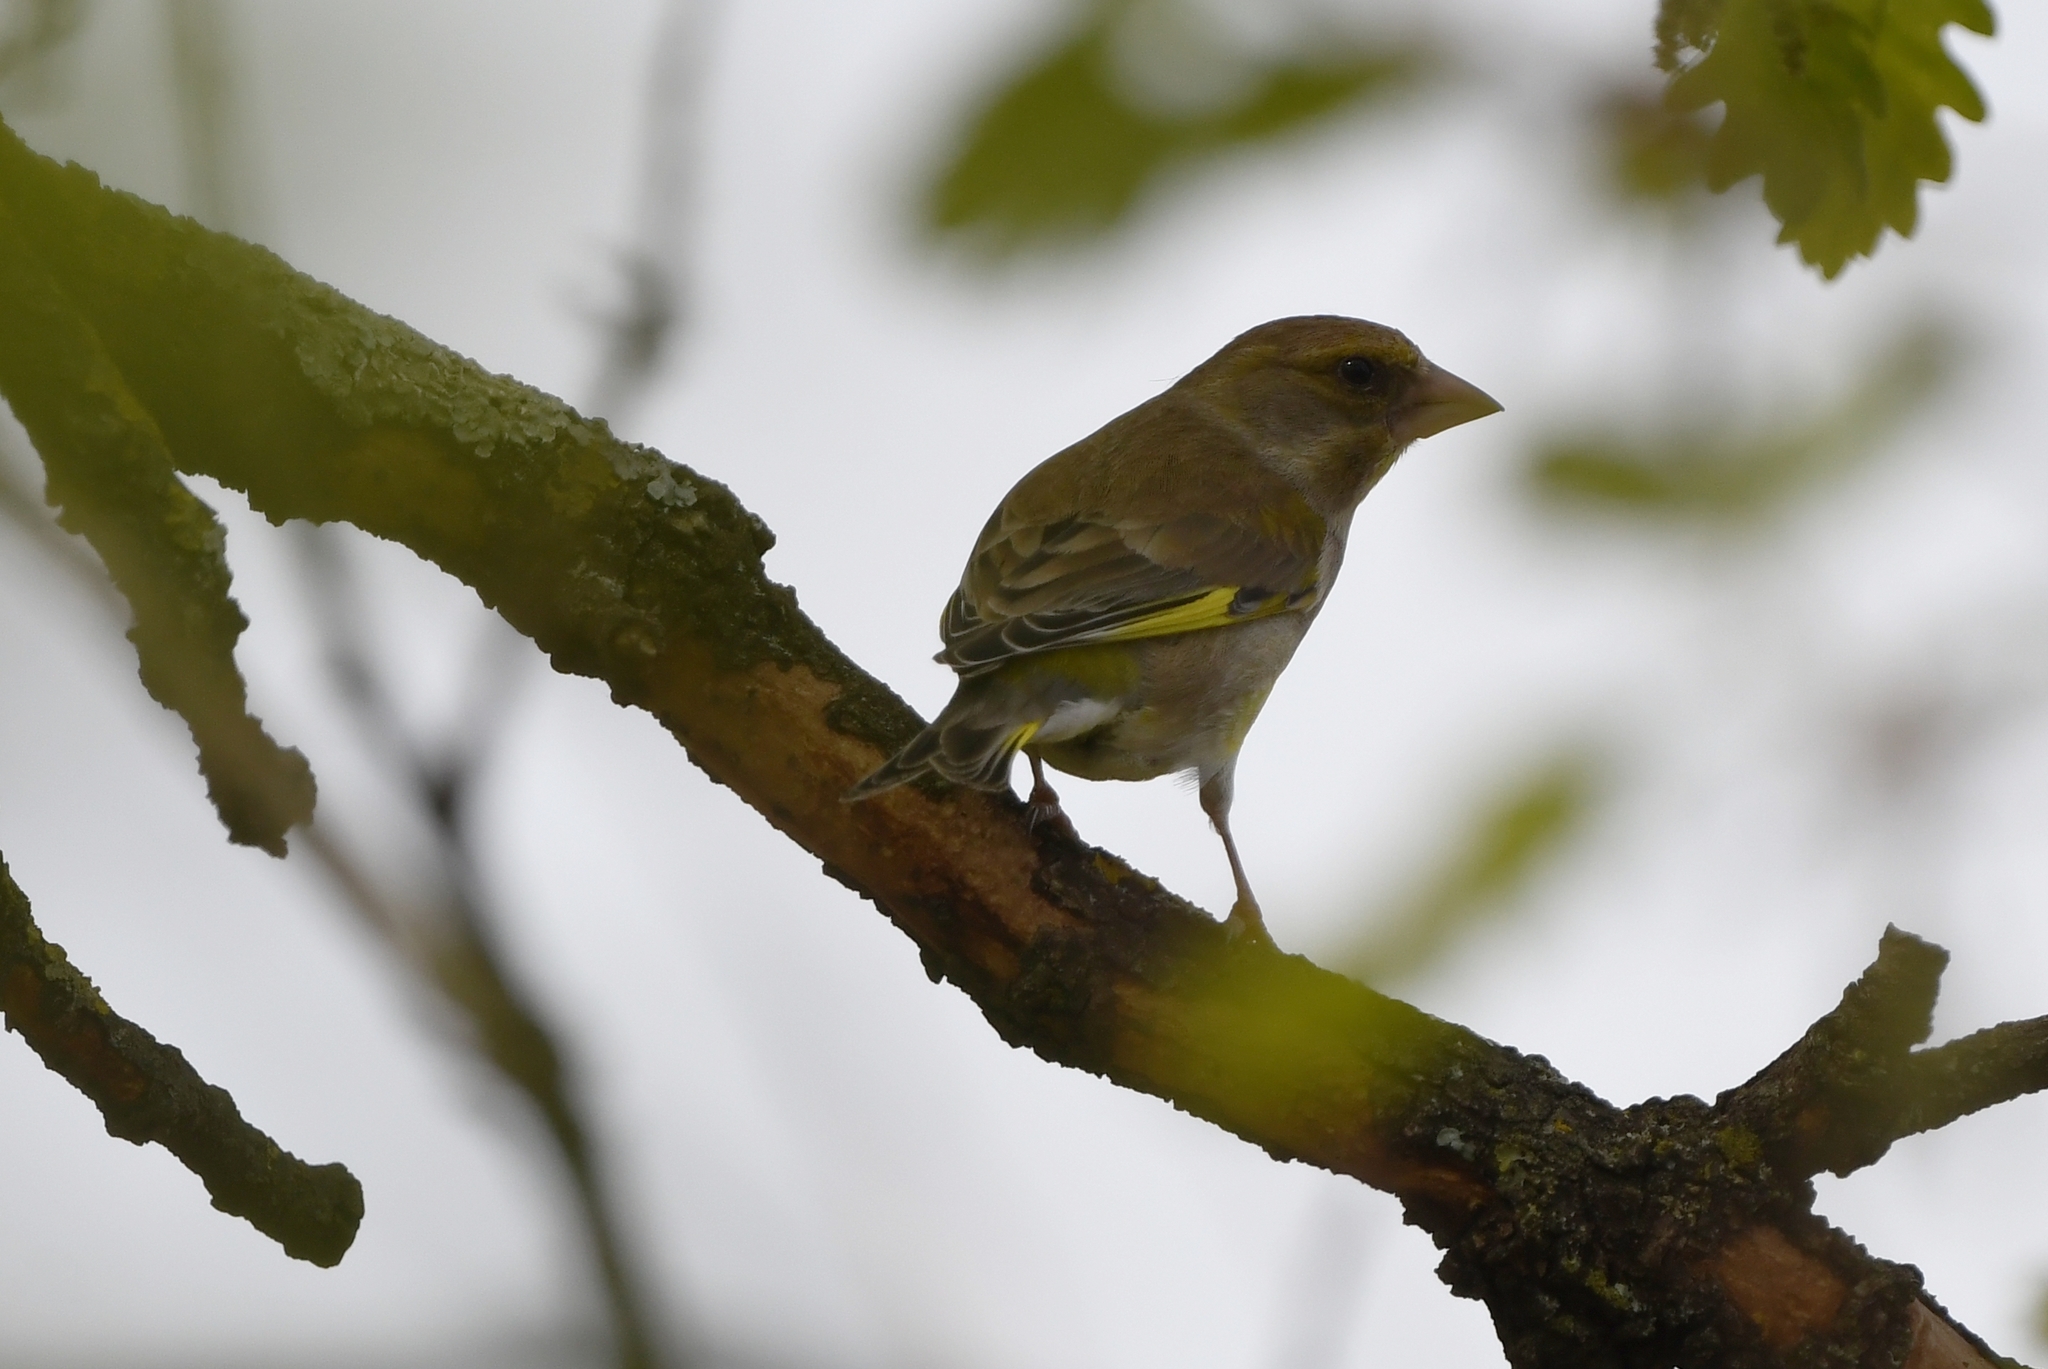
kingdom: Plantae
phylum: Tracheophyta
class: Liliopsida
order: Poales
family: Poaceae
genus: Chloris
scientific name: Chloris chloris
